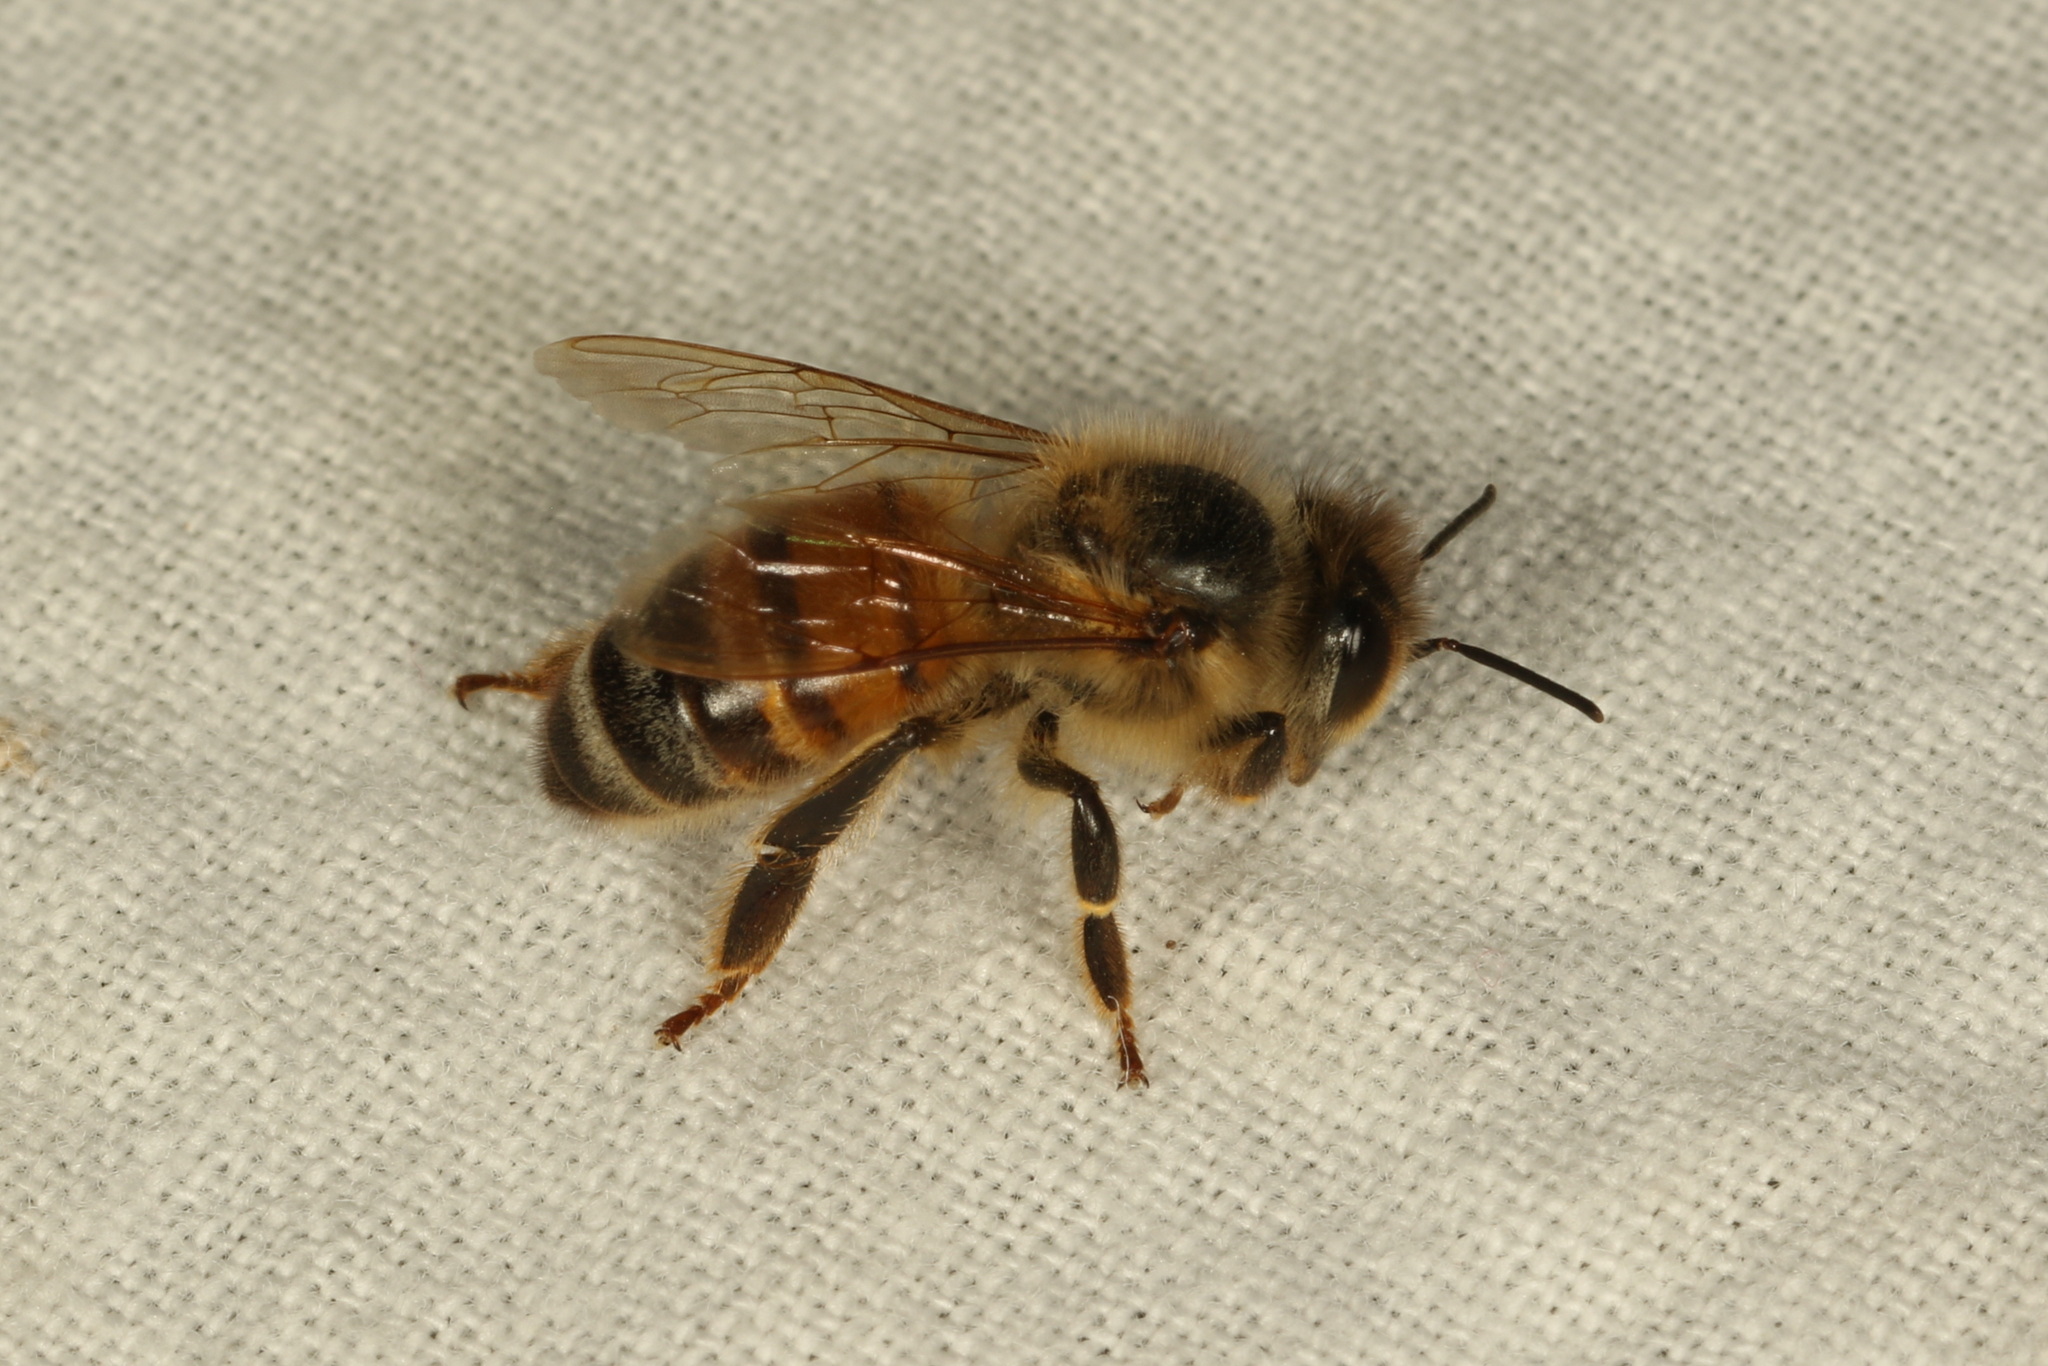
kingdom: Animalia
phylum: Arthropoda
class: Insecta
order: Hymenoptera
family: Apidae
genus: Apis
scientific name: Apis mellifera
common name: Honey bee
